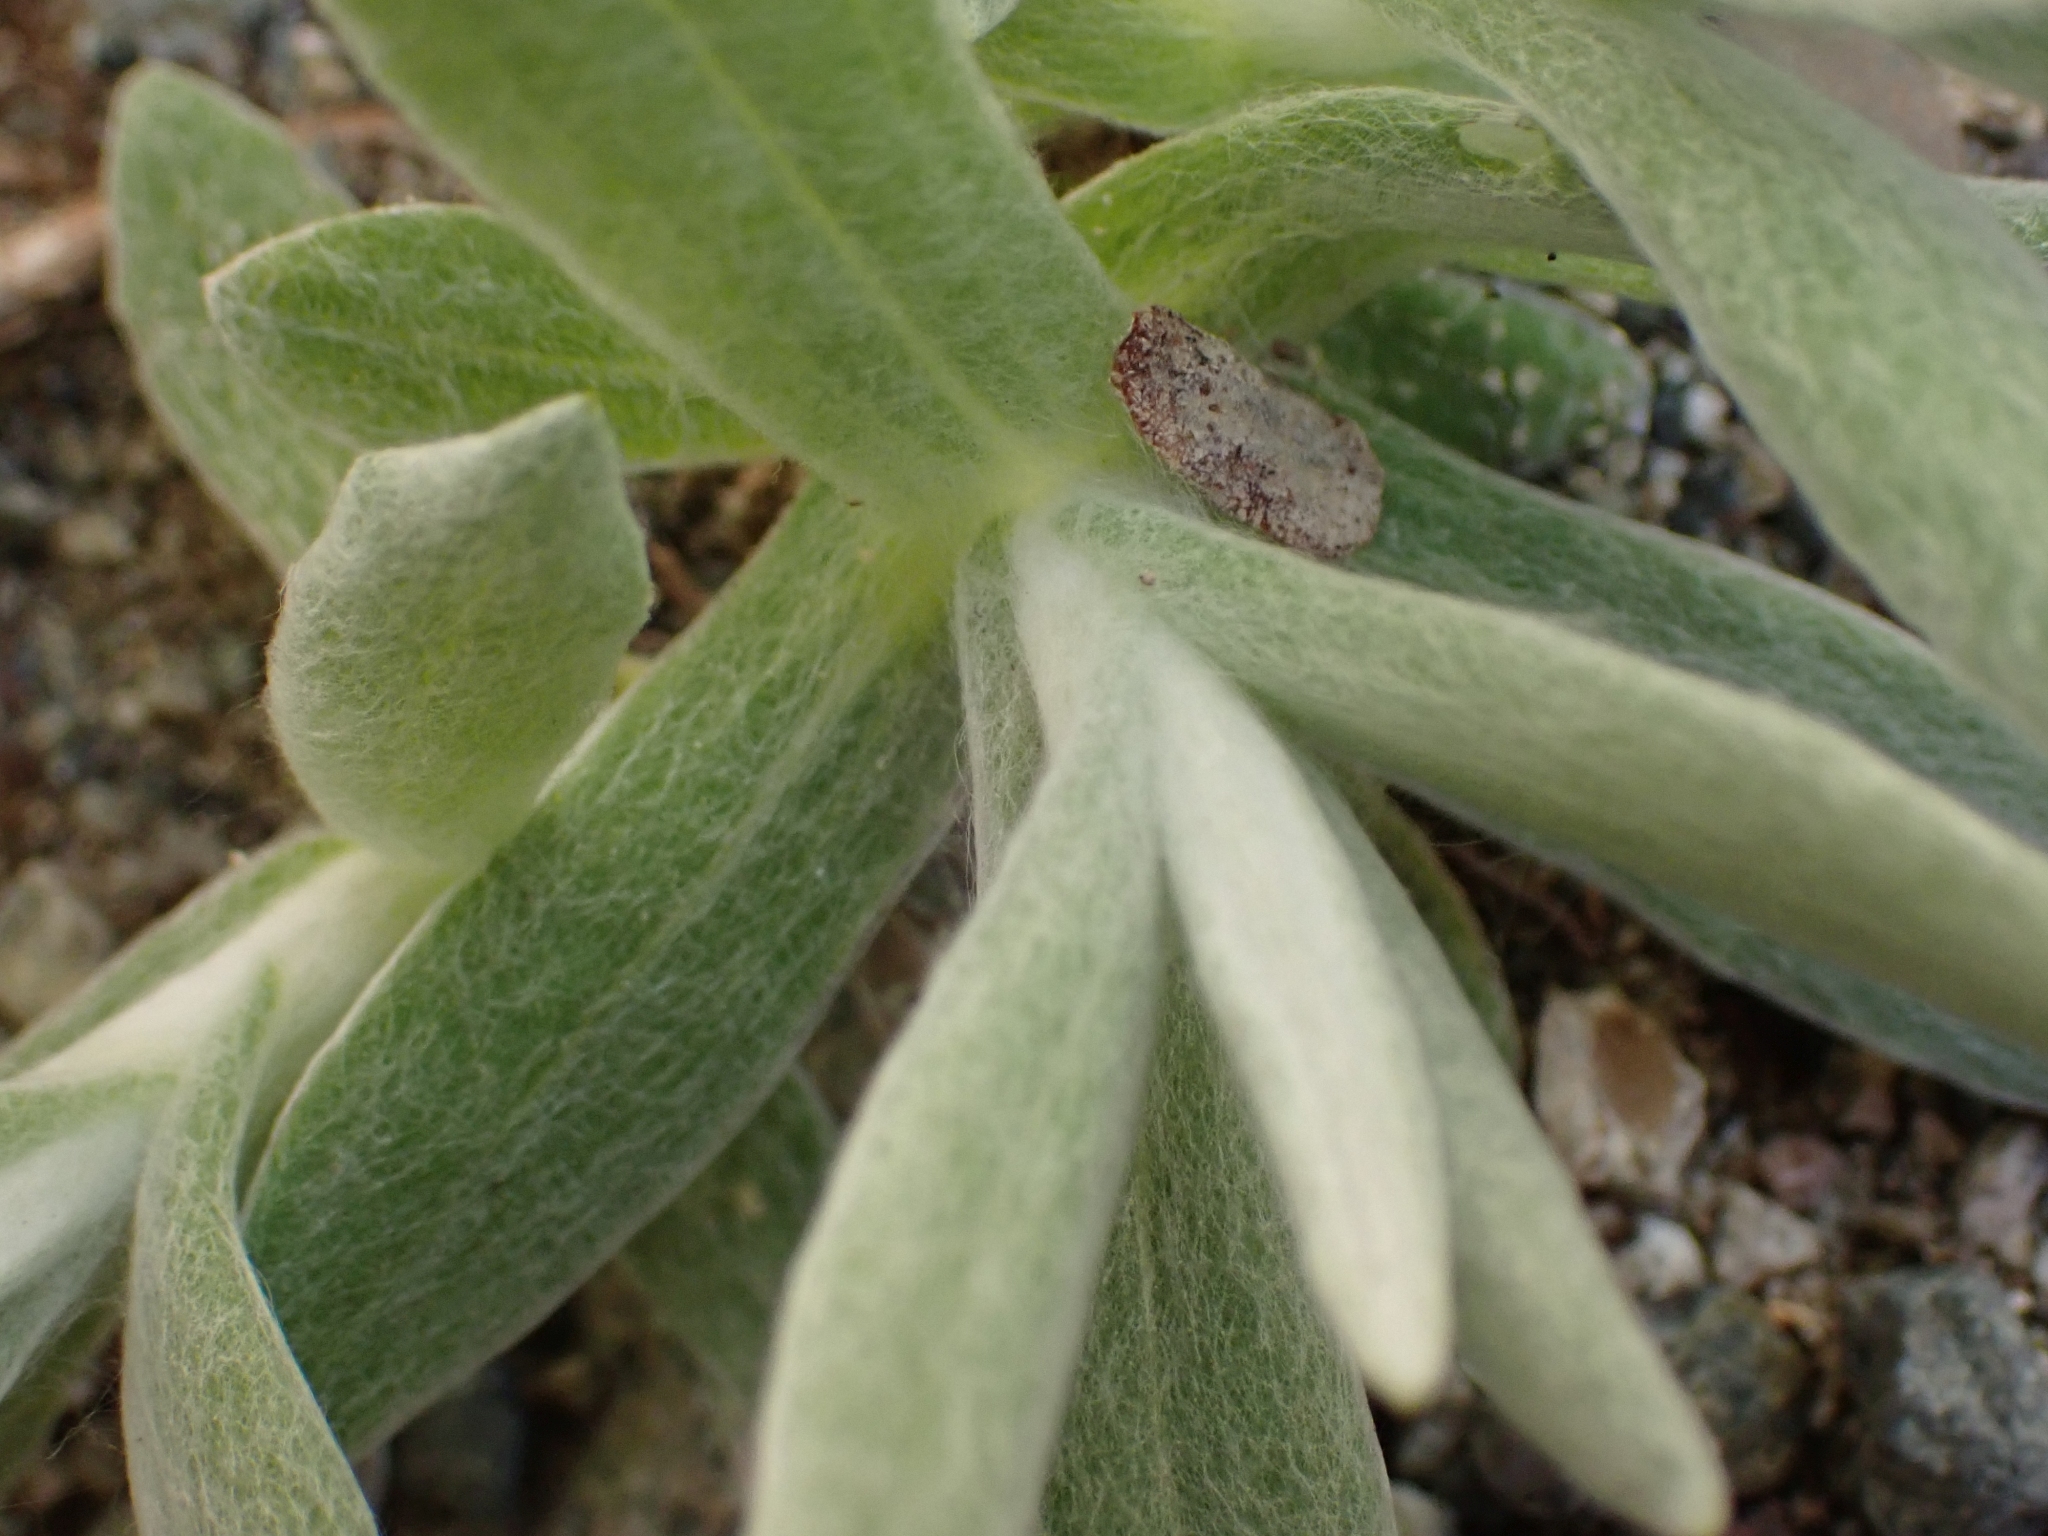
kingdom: Plantae
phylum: Tracheophyta
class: Magnoliopsida
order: Asterales
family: Asteraceae
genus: Anaphalis
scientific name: Anaphalis margaritacea
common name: Pearly everlasting
